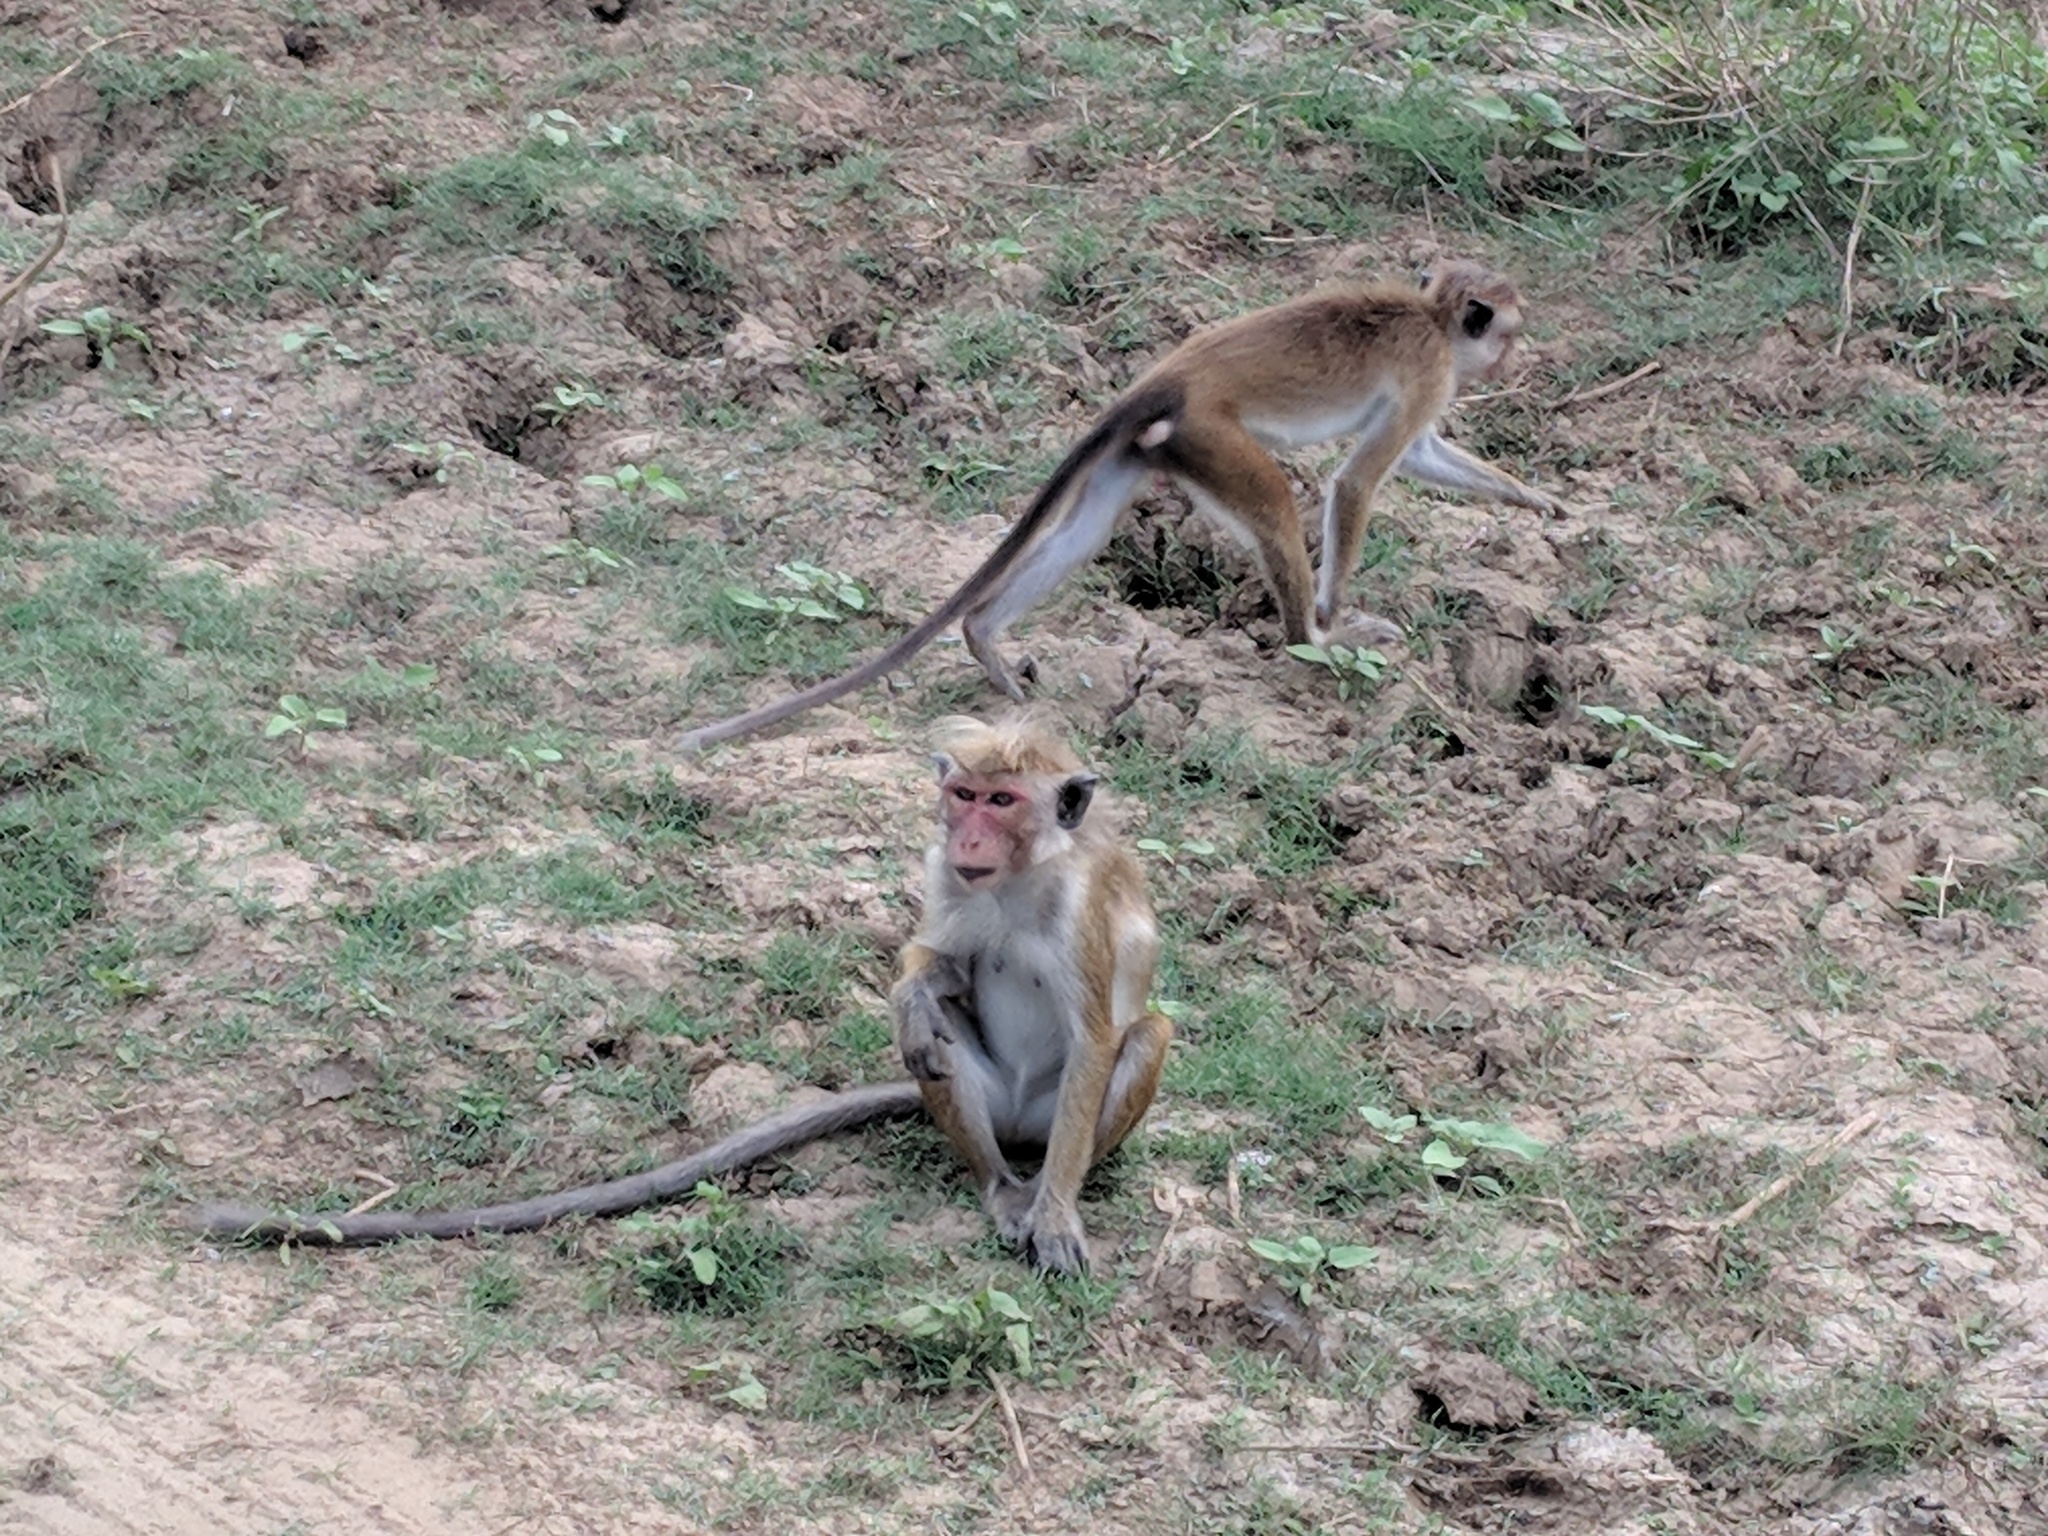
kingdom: Animalia
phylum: Chordata
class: Mammalia
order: Primates
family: Cercopithecidae
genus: Macaca
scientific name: Macaca sinica
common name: Toque macaque
